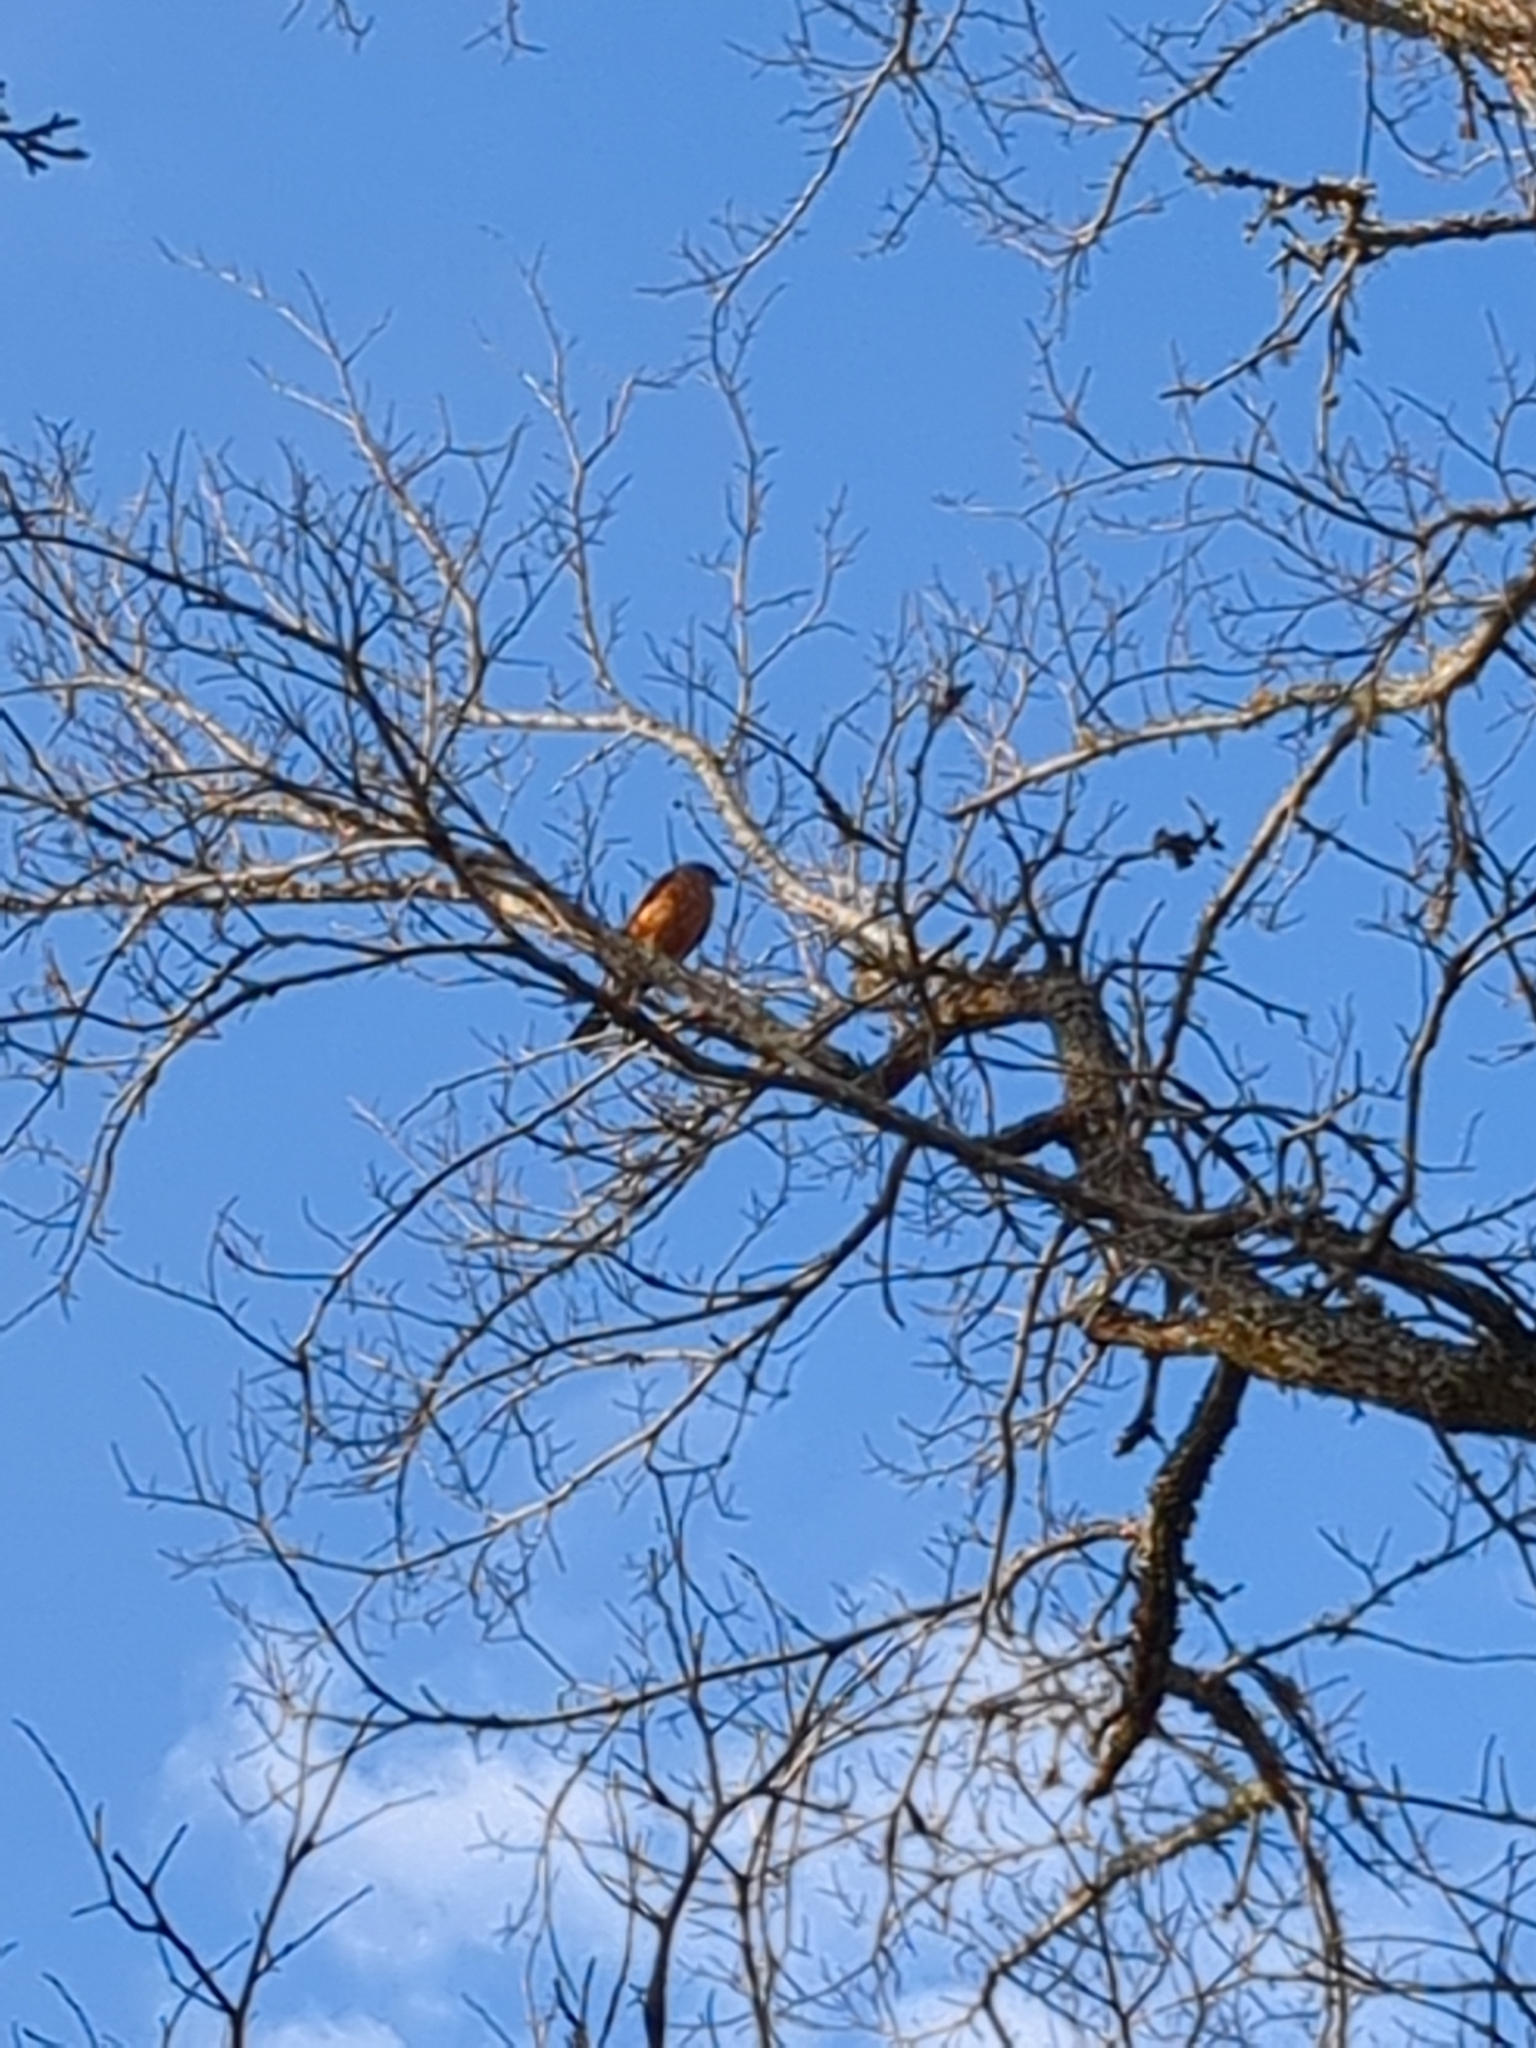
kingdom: Animalia
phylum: Chordata
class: Aves
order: Passeriformes
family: Turdidae
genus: Turdus
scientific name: Turdus migratorius
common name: American robin
